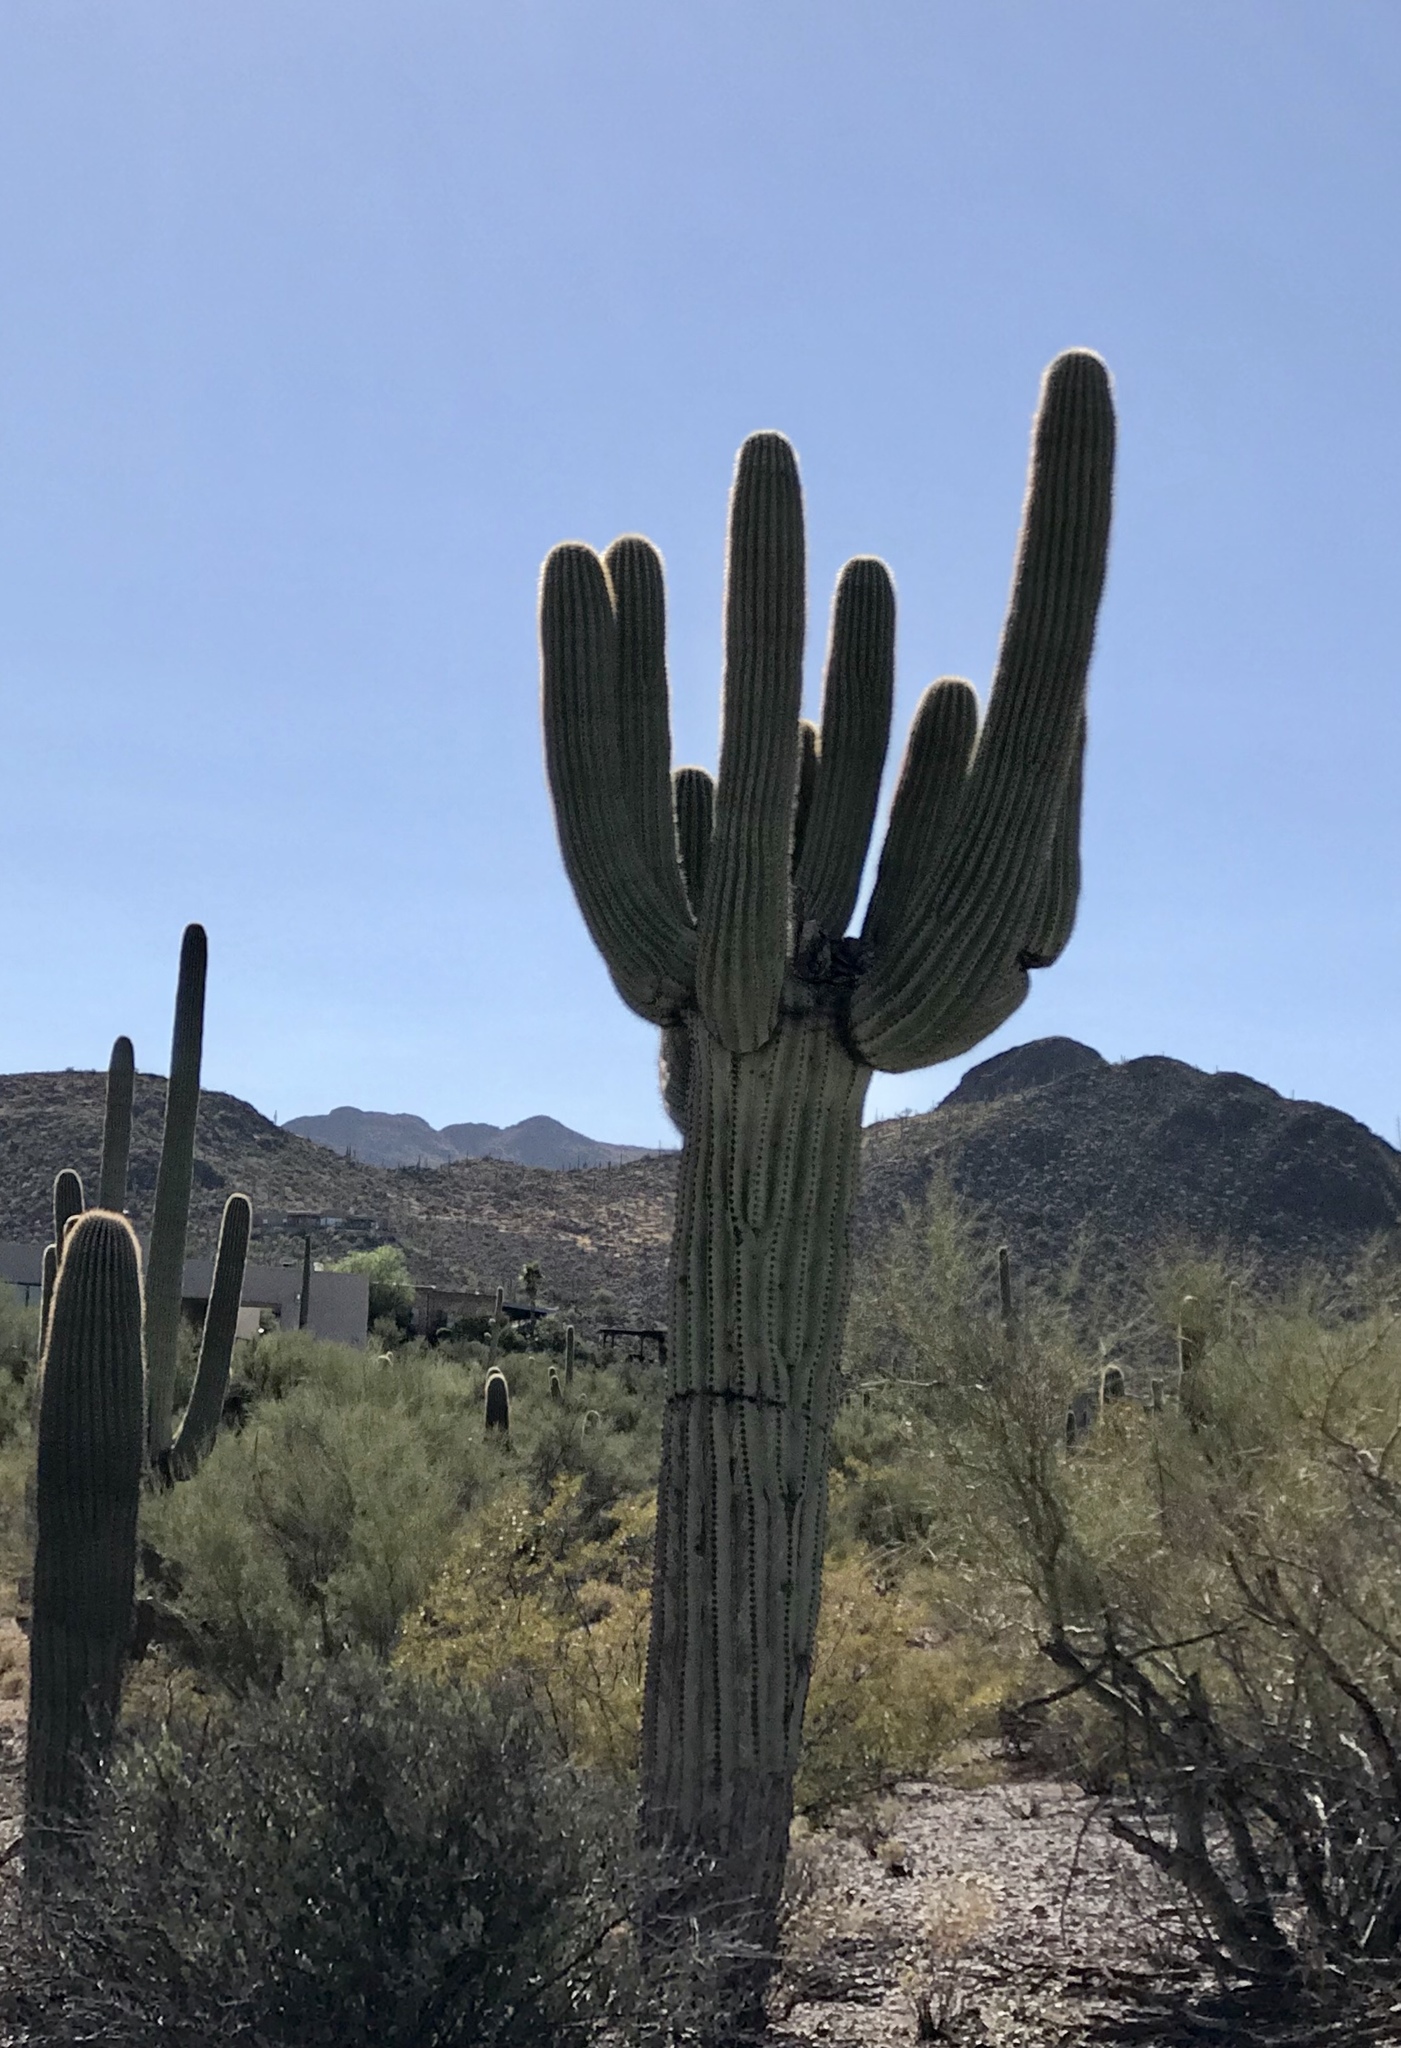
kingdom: Plantae
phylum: Tracheophyta
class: Magnoliopsida
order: Caryophyllales
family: Cactaceae
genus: Carnegiea
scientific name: Carnegiea gigantea
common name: Saguaro
